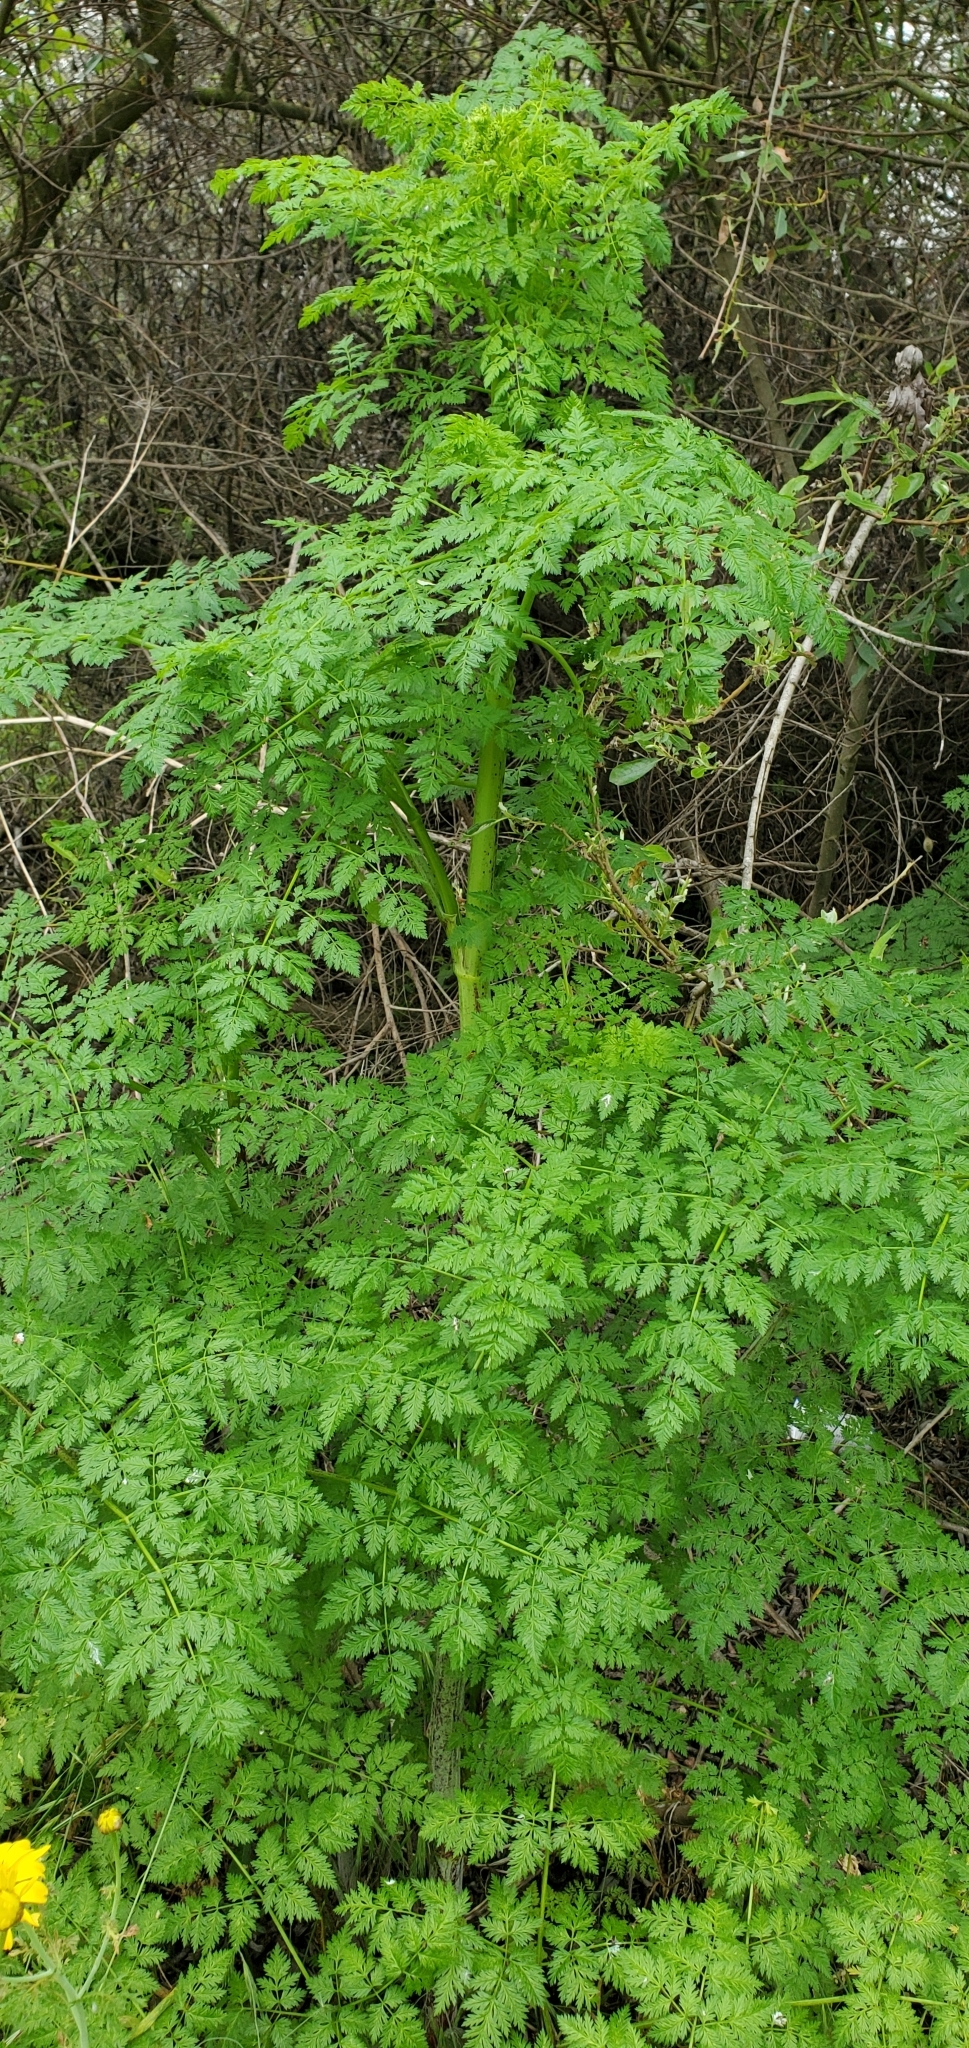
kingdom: Plantae
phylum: Tracheophyta
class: Magnoliopsida
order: Apiales
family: Apiaceae
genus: Conium
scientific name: Conium maculatum
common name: Hemlock
